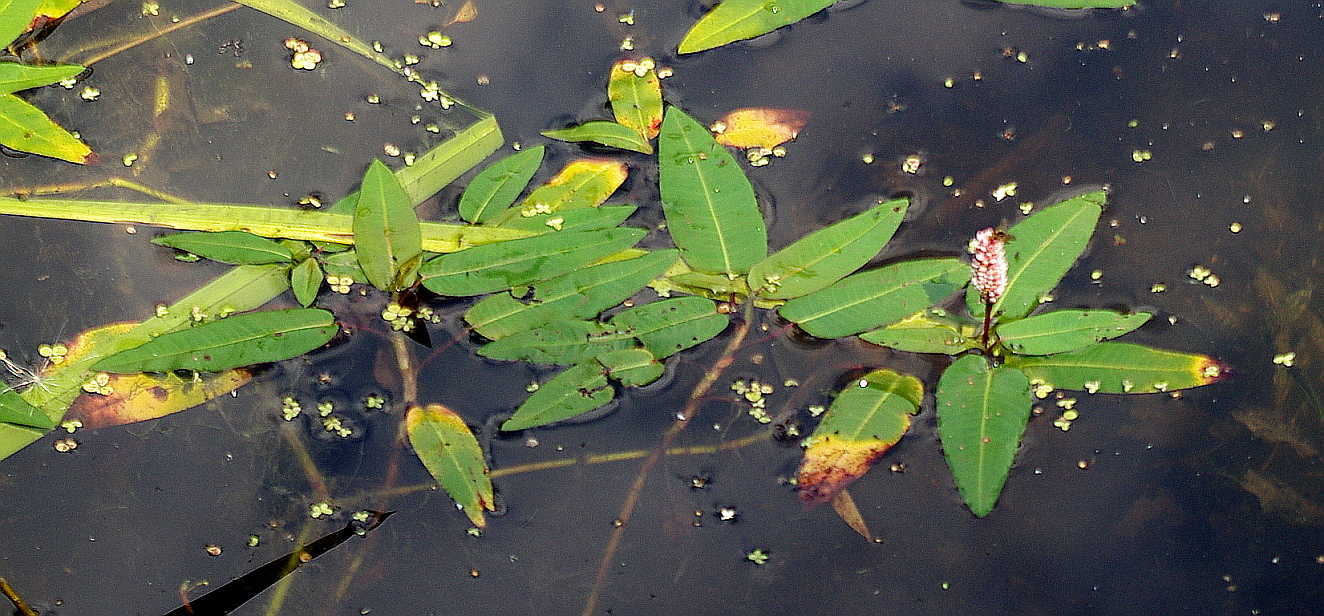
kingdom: Plantae
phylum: Tracheophyta
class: Magnoliopsida
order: Caryophyllales
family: Polygonaceae
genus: Persicaria
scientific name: Persicaria amphibia
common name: Amphibious bistort
